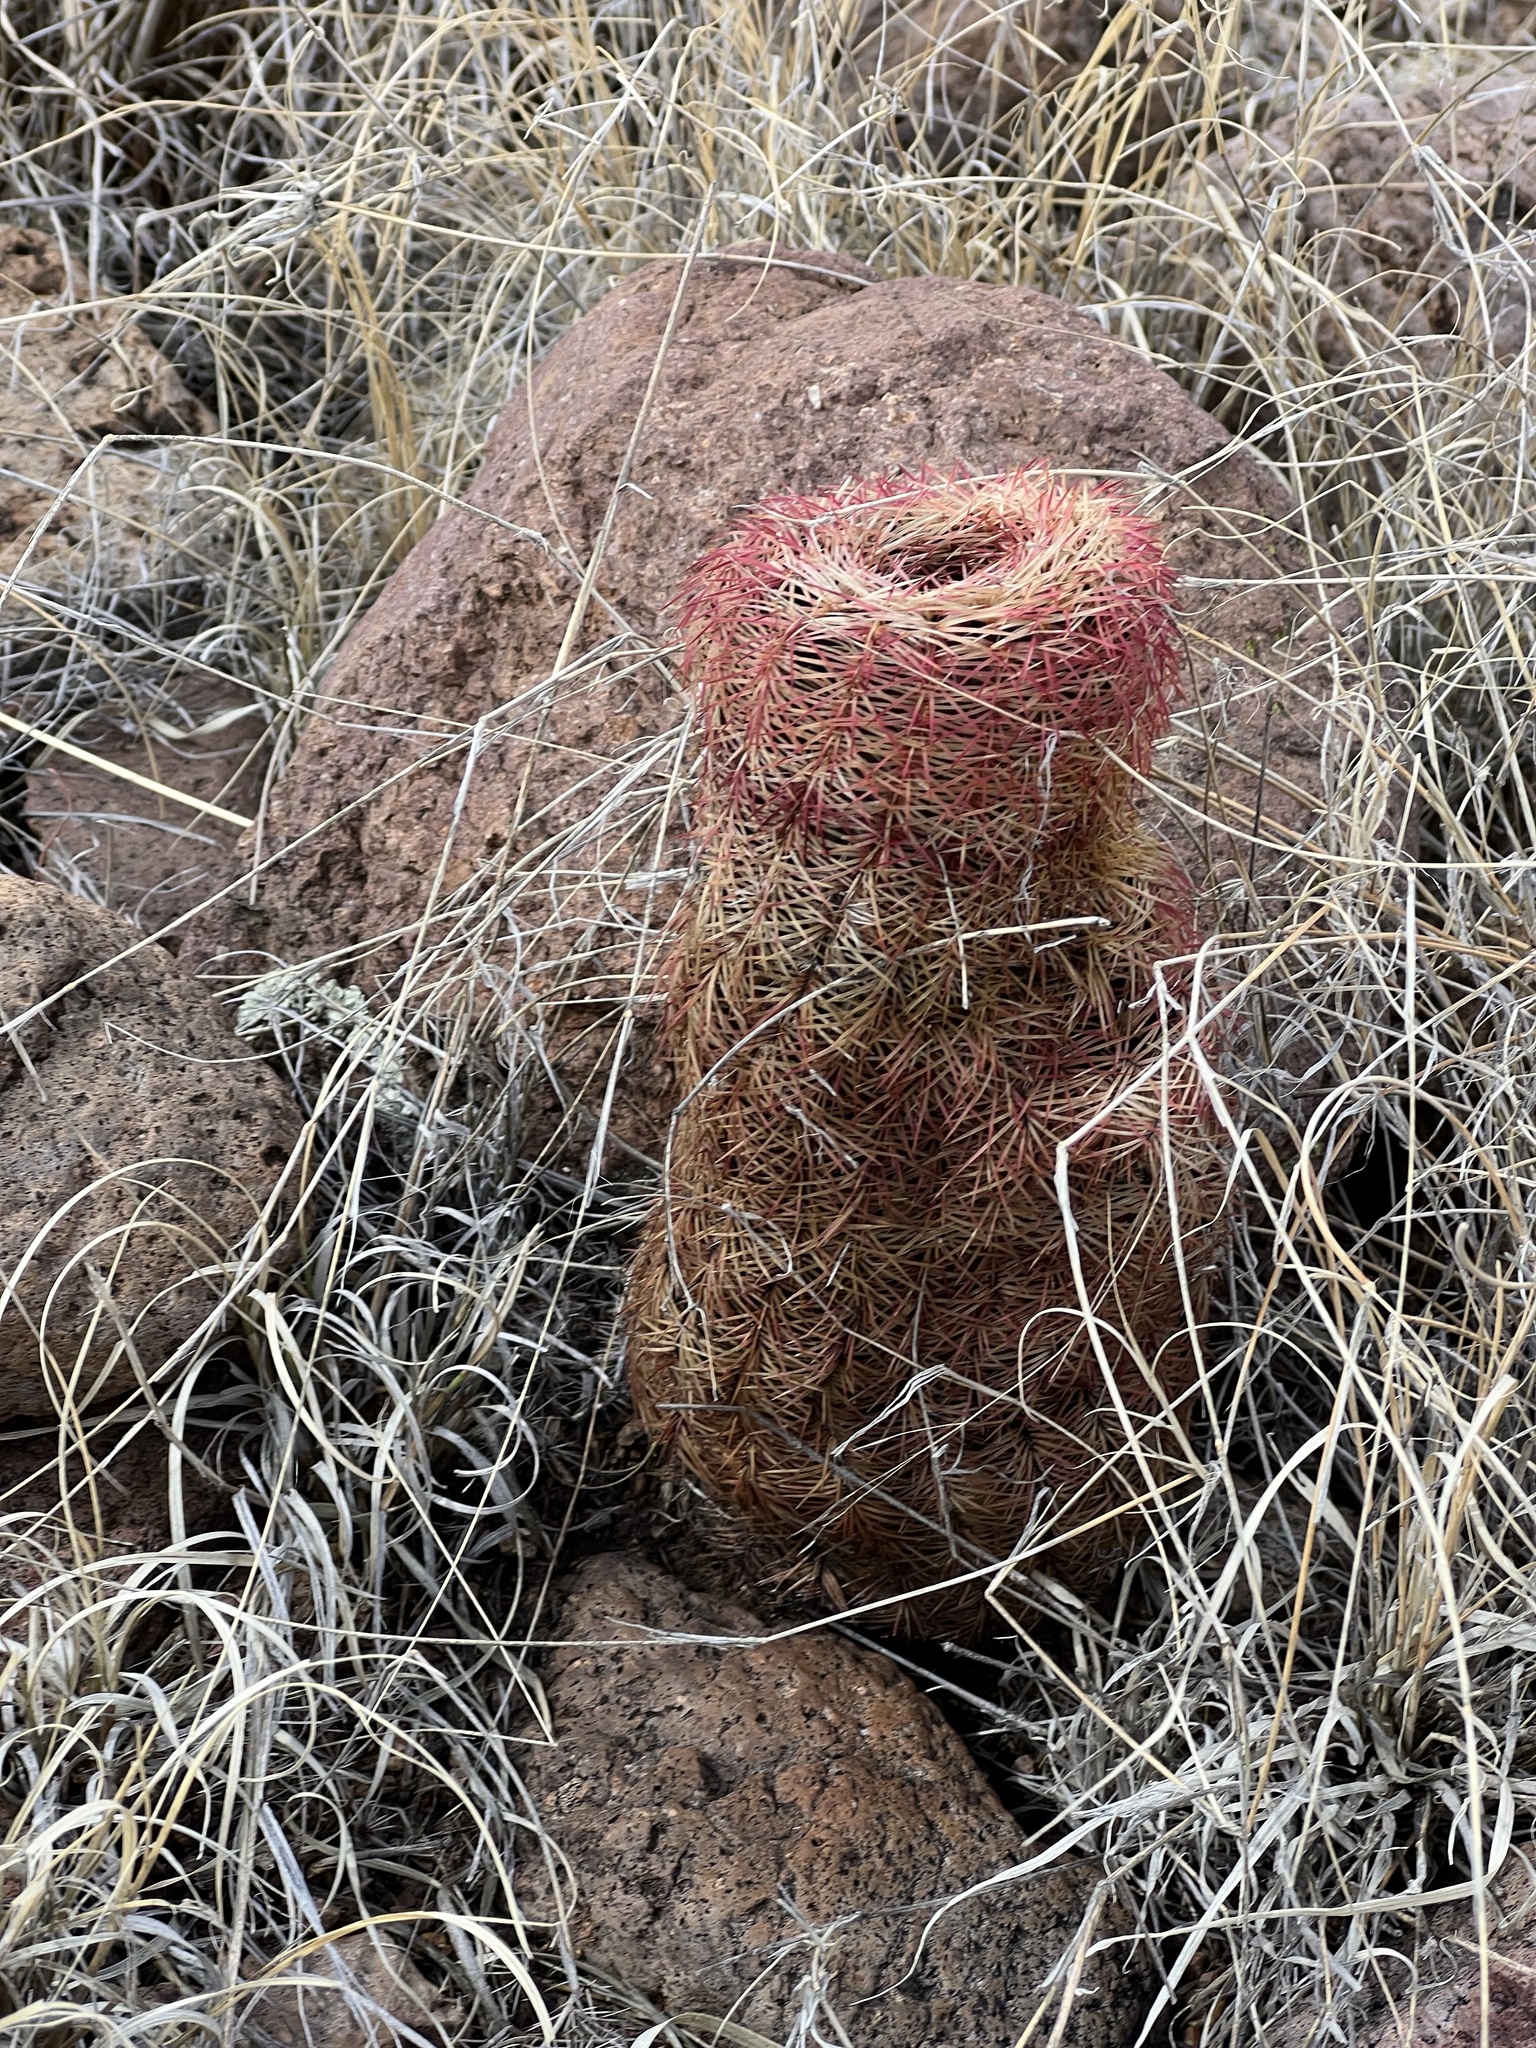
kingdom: Plantae
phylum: Tracheophyta
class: Magnoliopsida
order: Caryophyllales
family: Cactaceae
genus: Echinocereus
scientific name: Echinocereus rigidissimus
